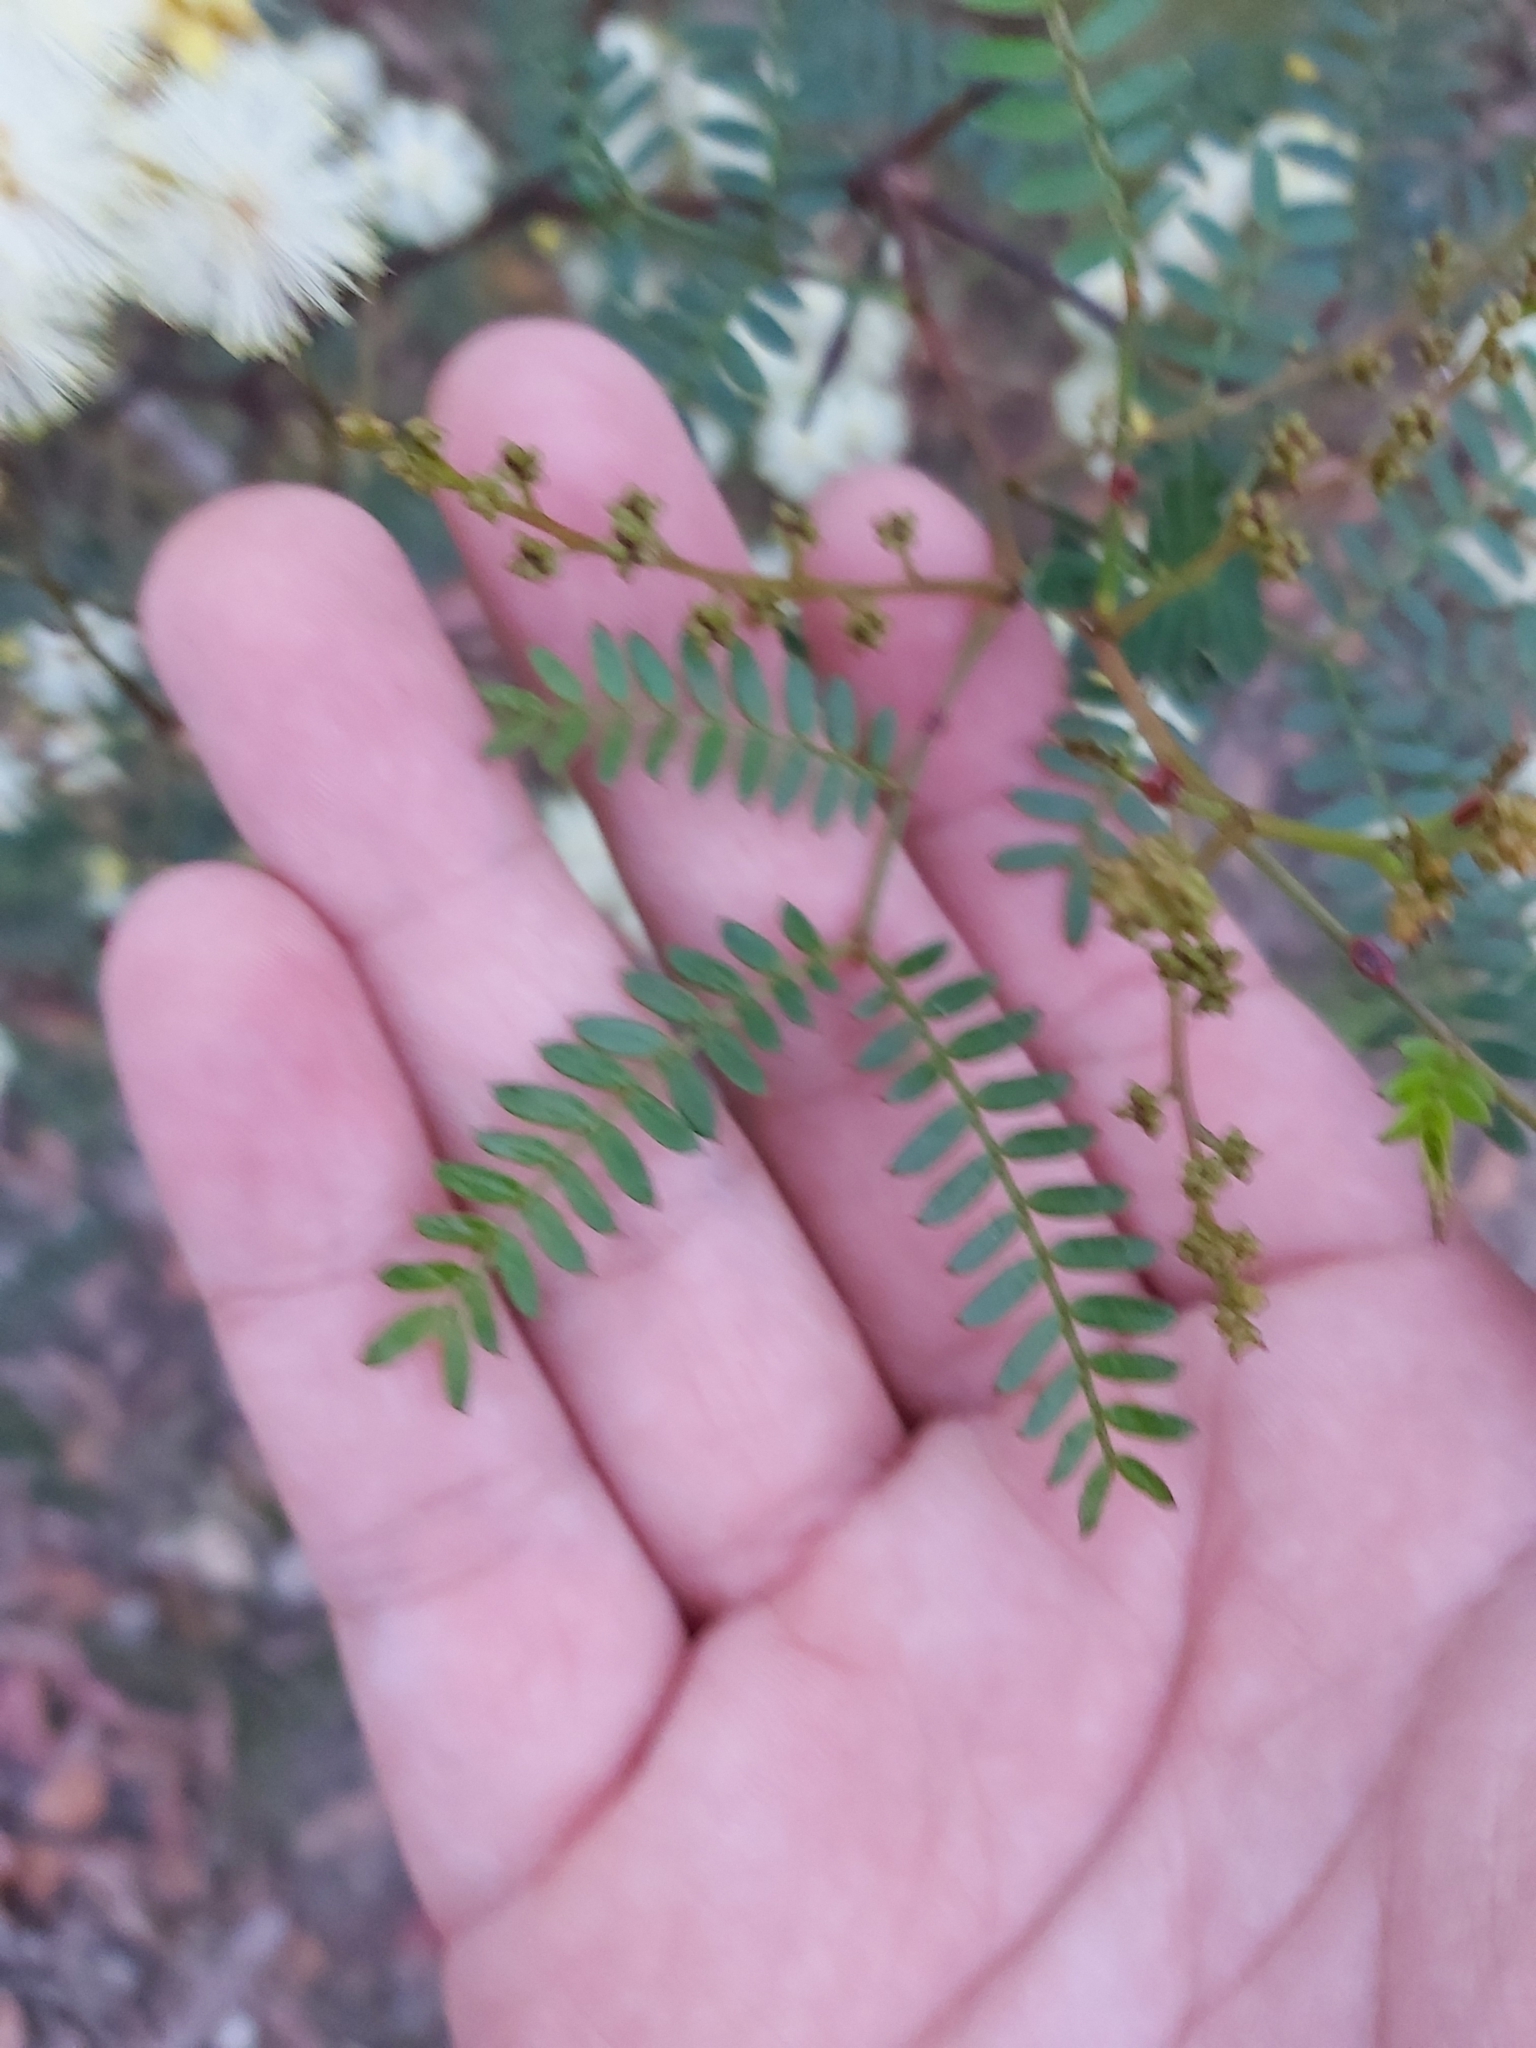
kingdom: Plantae
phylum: Tracheophyta
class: Magnoliopsida
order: Fabales
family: Fabaceae
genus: Acacia
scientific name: Acacia terminalis
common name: Cedar wattle
